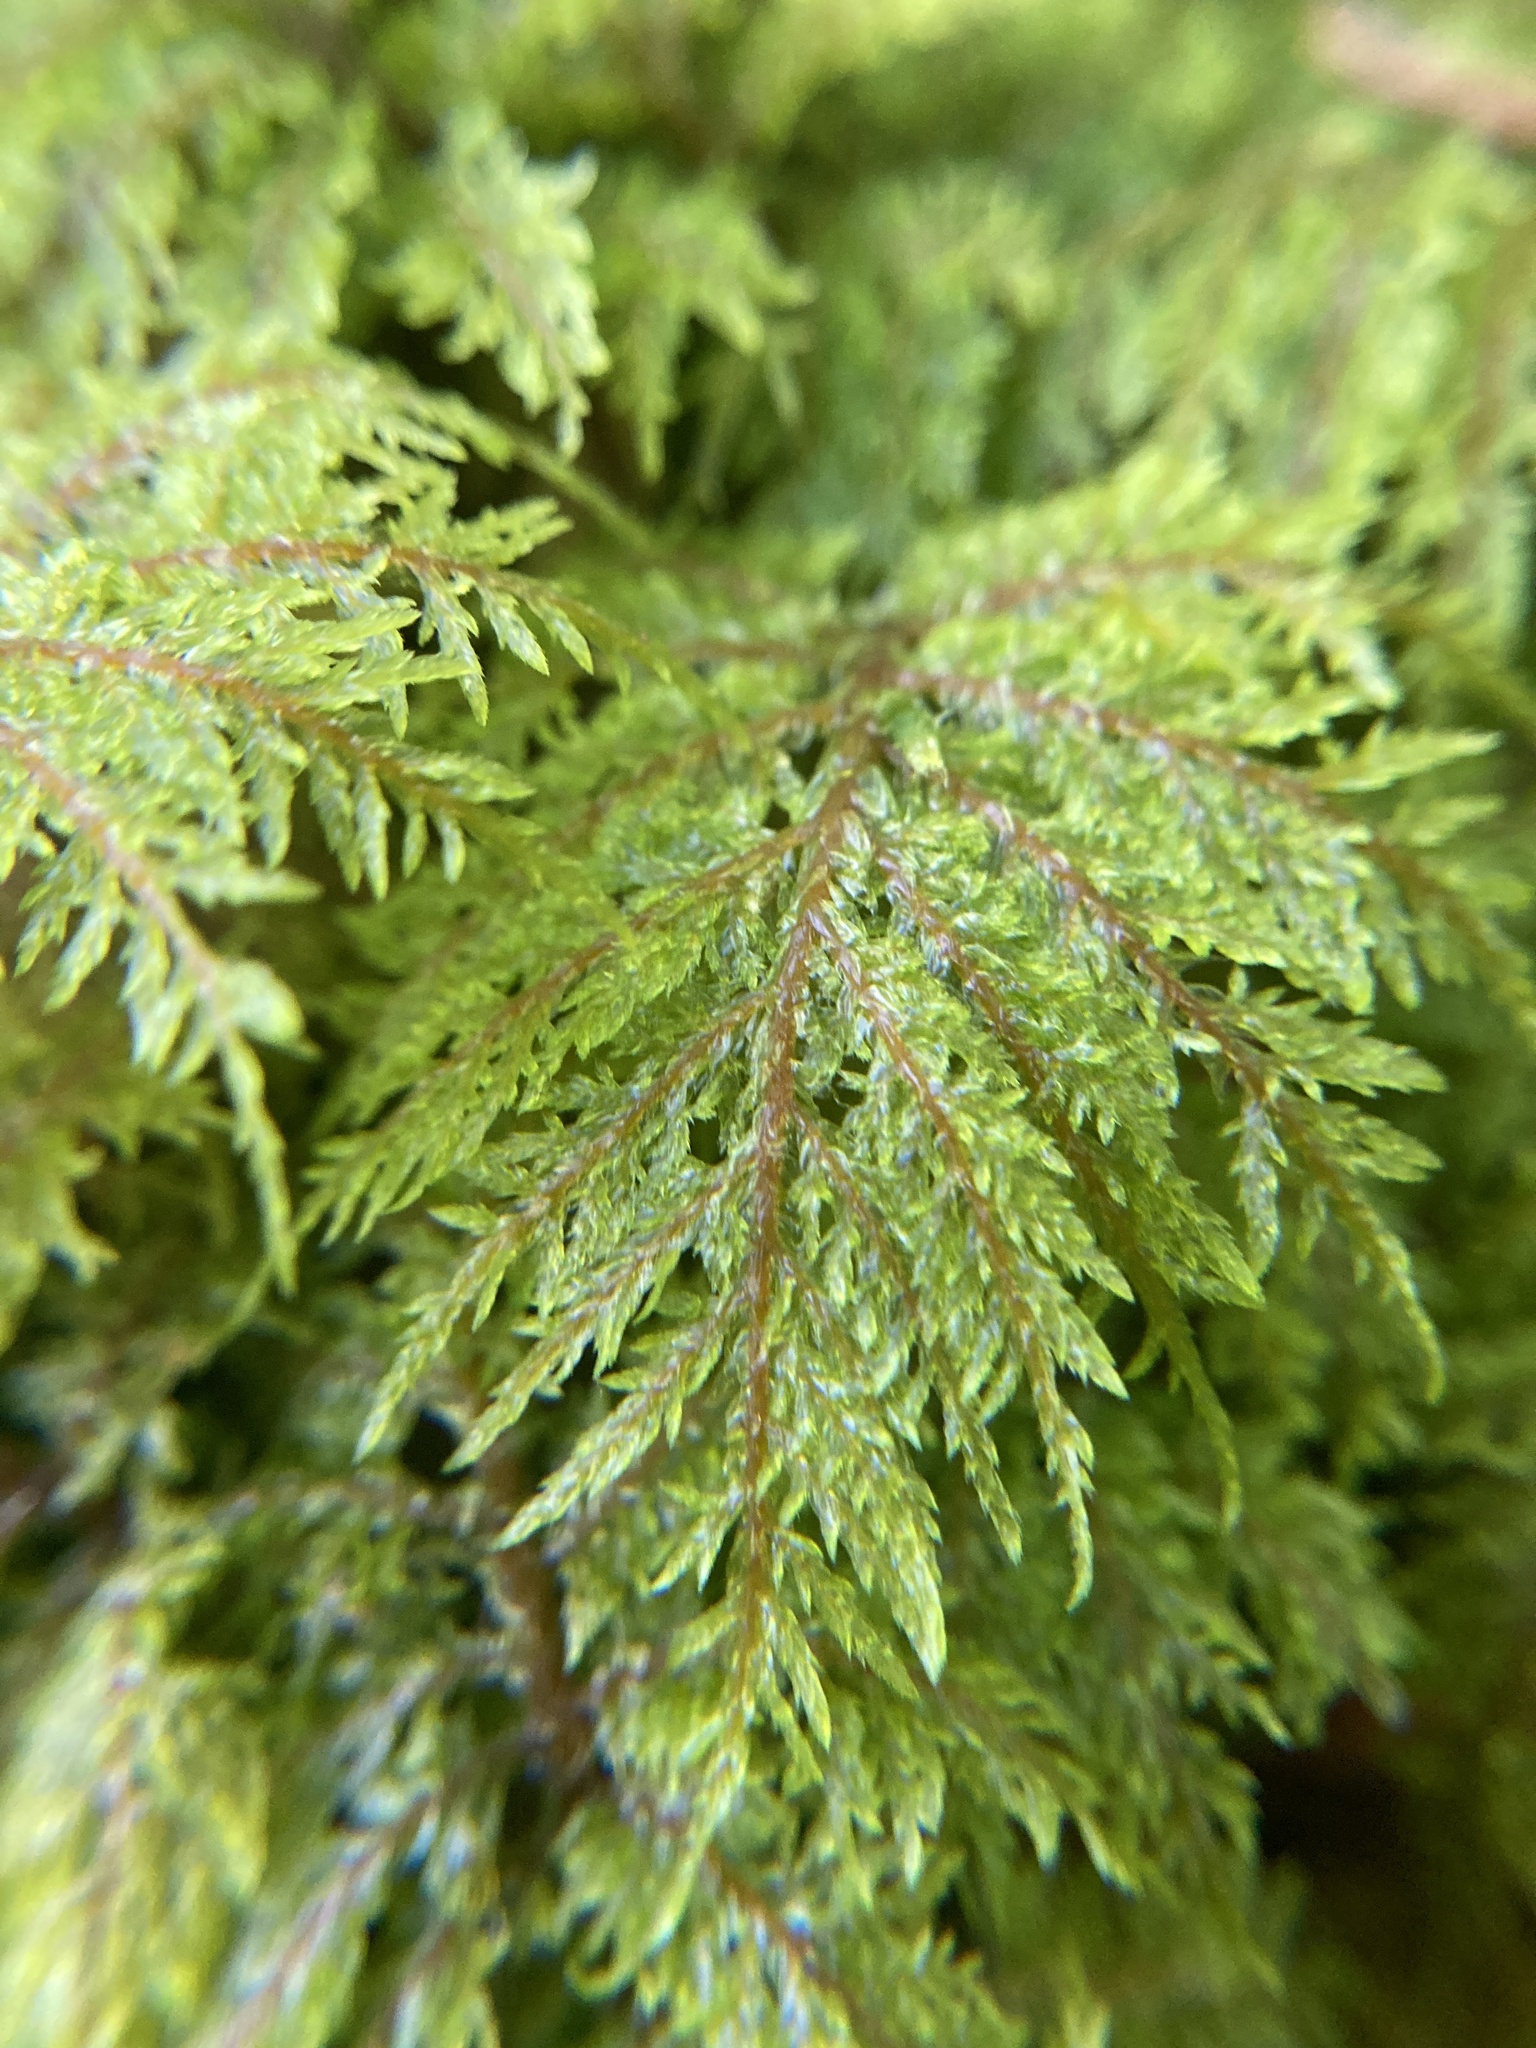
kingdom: Plantae
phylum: Bryophyta
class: Bryopsida
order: Hypnales
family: Hylocomiaceae
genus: Hylocomium
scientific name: Hylocomium splendens
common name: Stairstep moss
